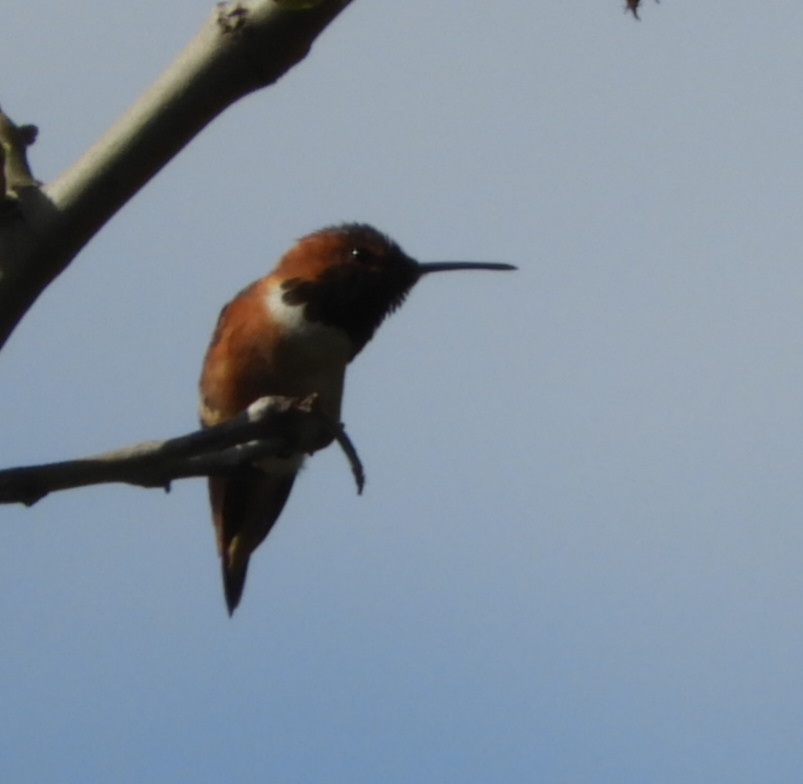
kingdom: Animalia
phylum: Chordata
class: Aves
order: Apodiformes
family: Trochilidae
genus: Selasphorus
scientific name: Selasphorus
